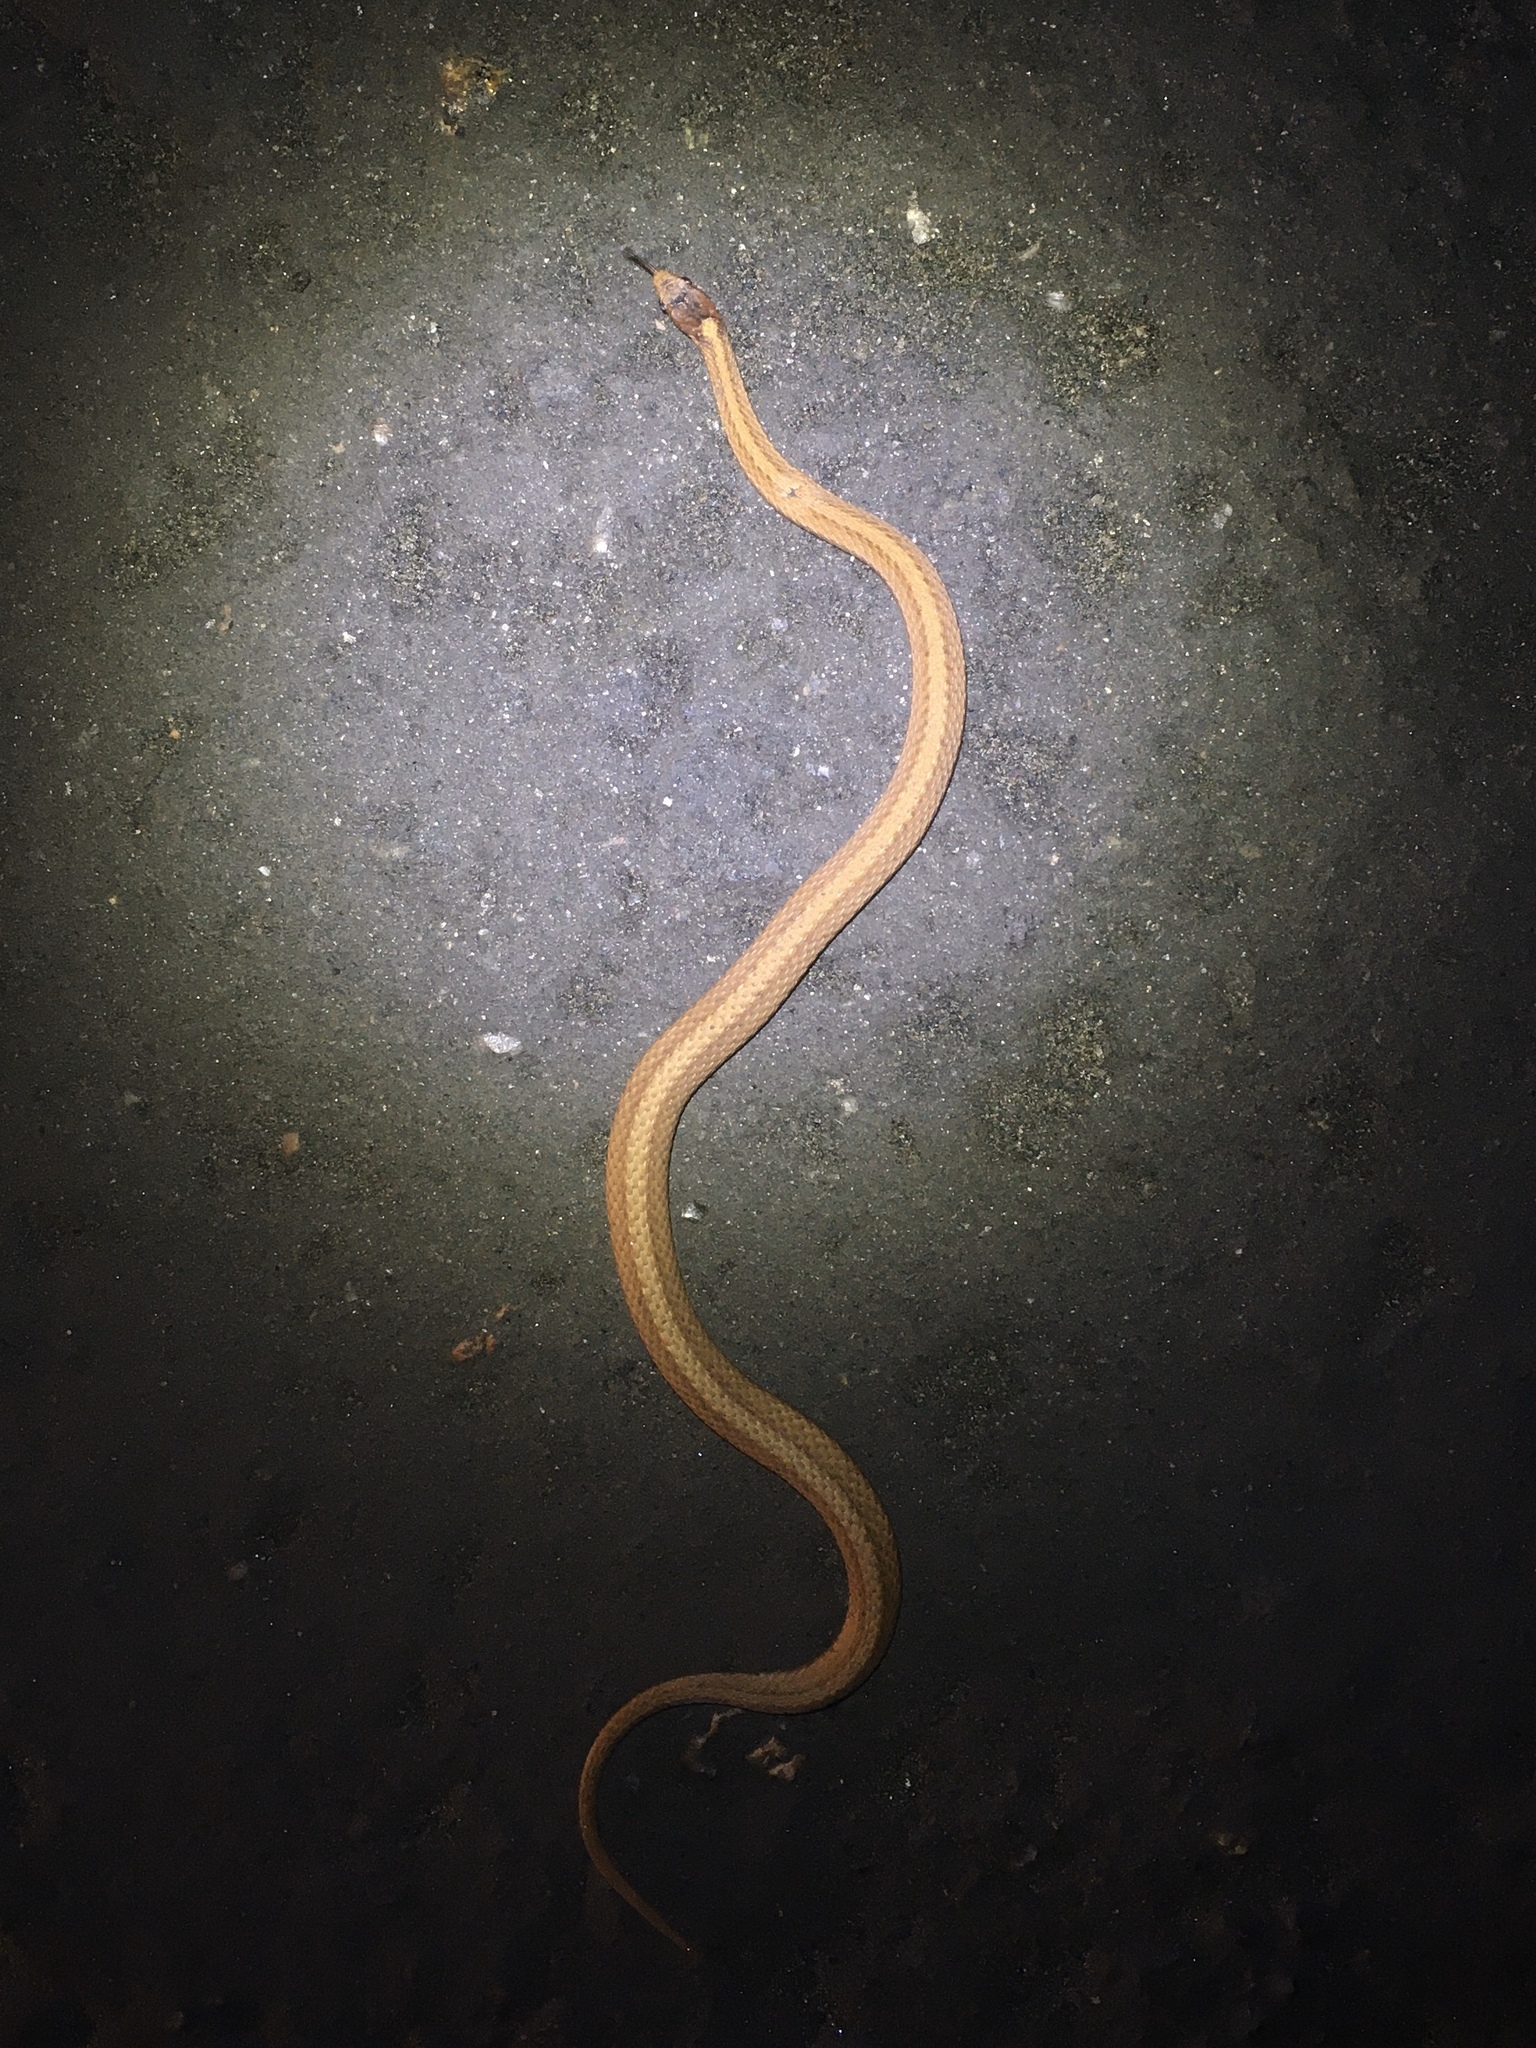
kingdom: Animalia
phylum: Chordata
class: Squamata
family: Colubridae
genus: Storeria
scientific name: Storeria occipitomaculata
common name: Redbelly snake
